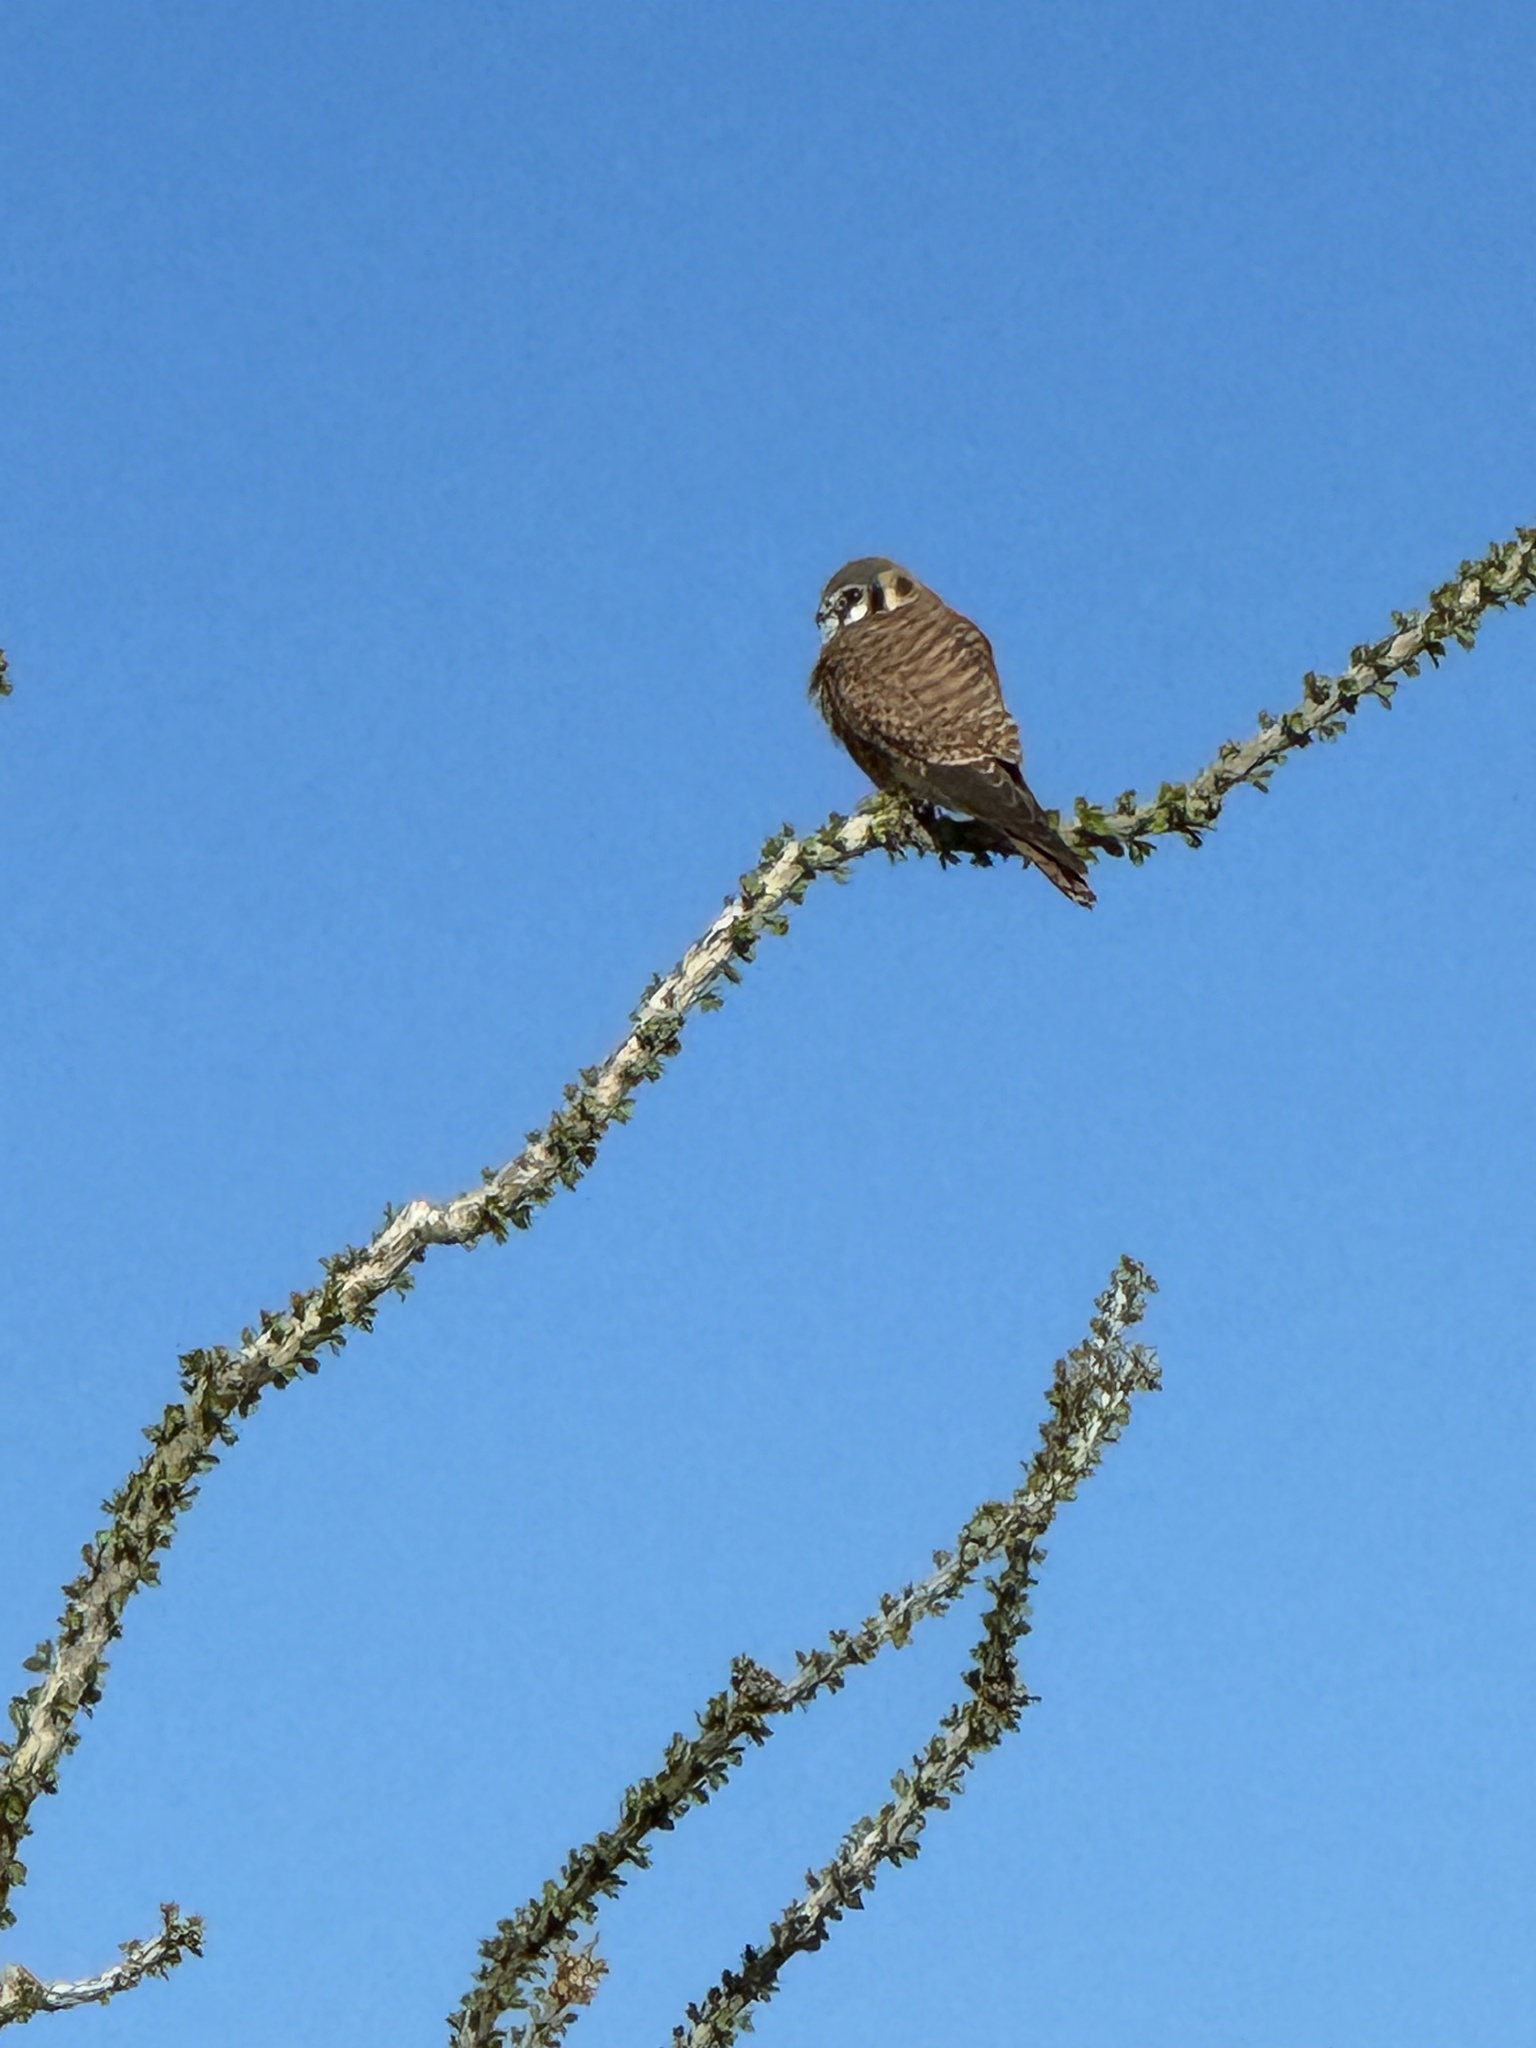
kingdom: Animalia
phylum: Chordata
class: Aves
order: Falconiformes
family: Falconidae
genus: Falco
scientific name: Falco sparverius
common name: American kestrel
